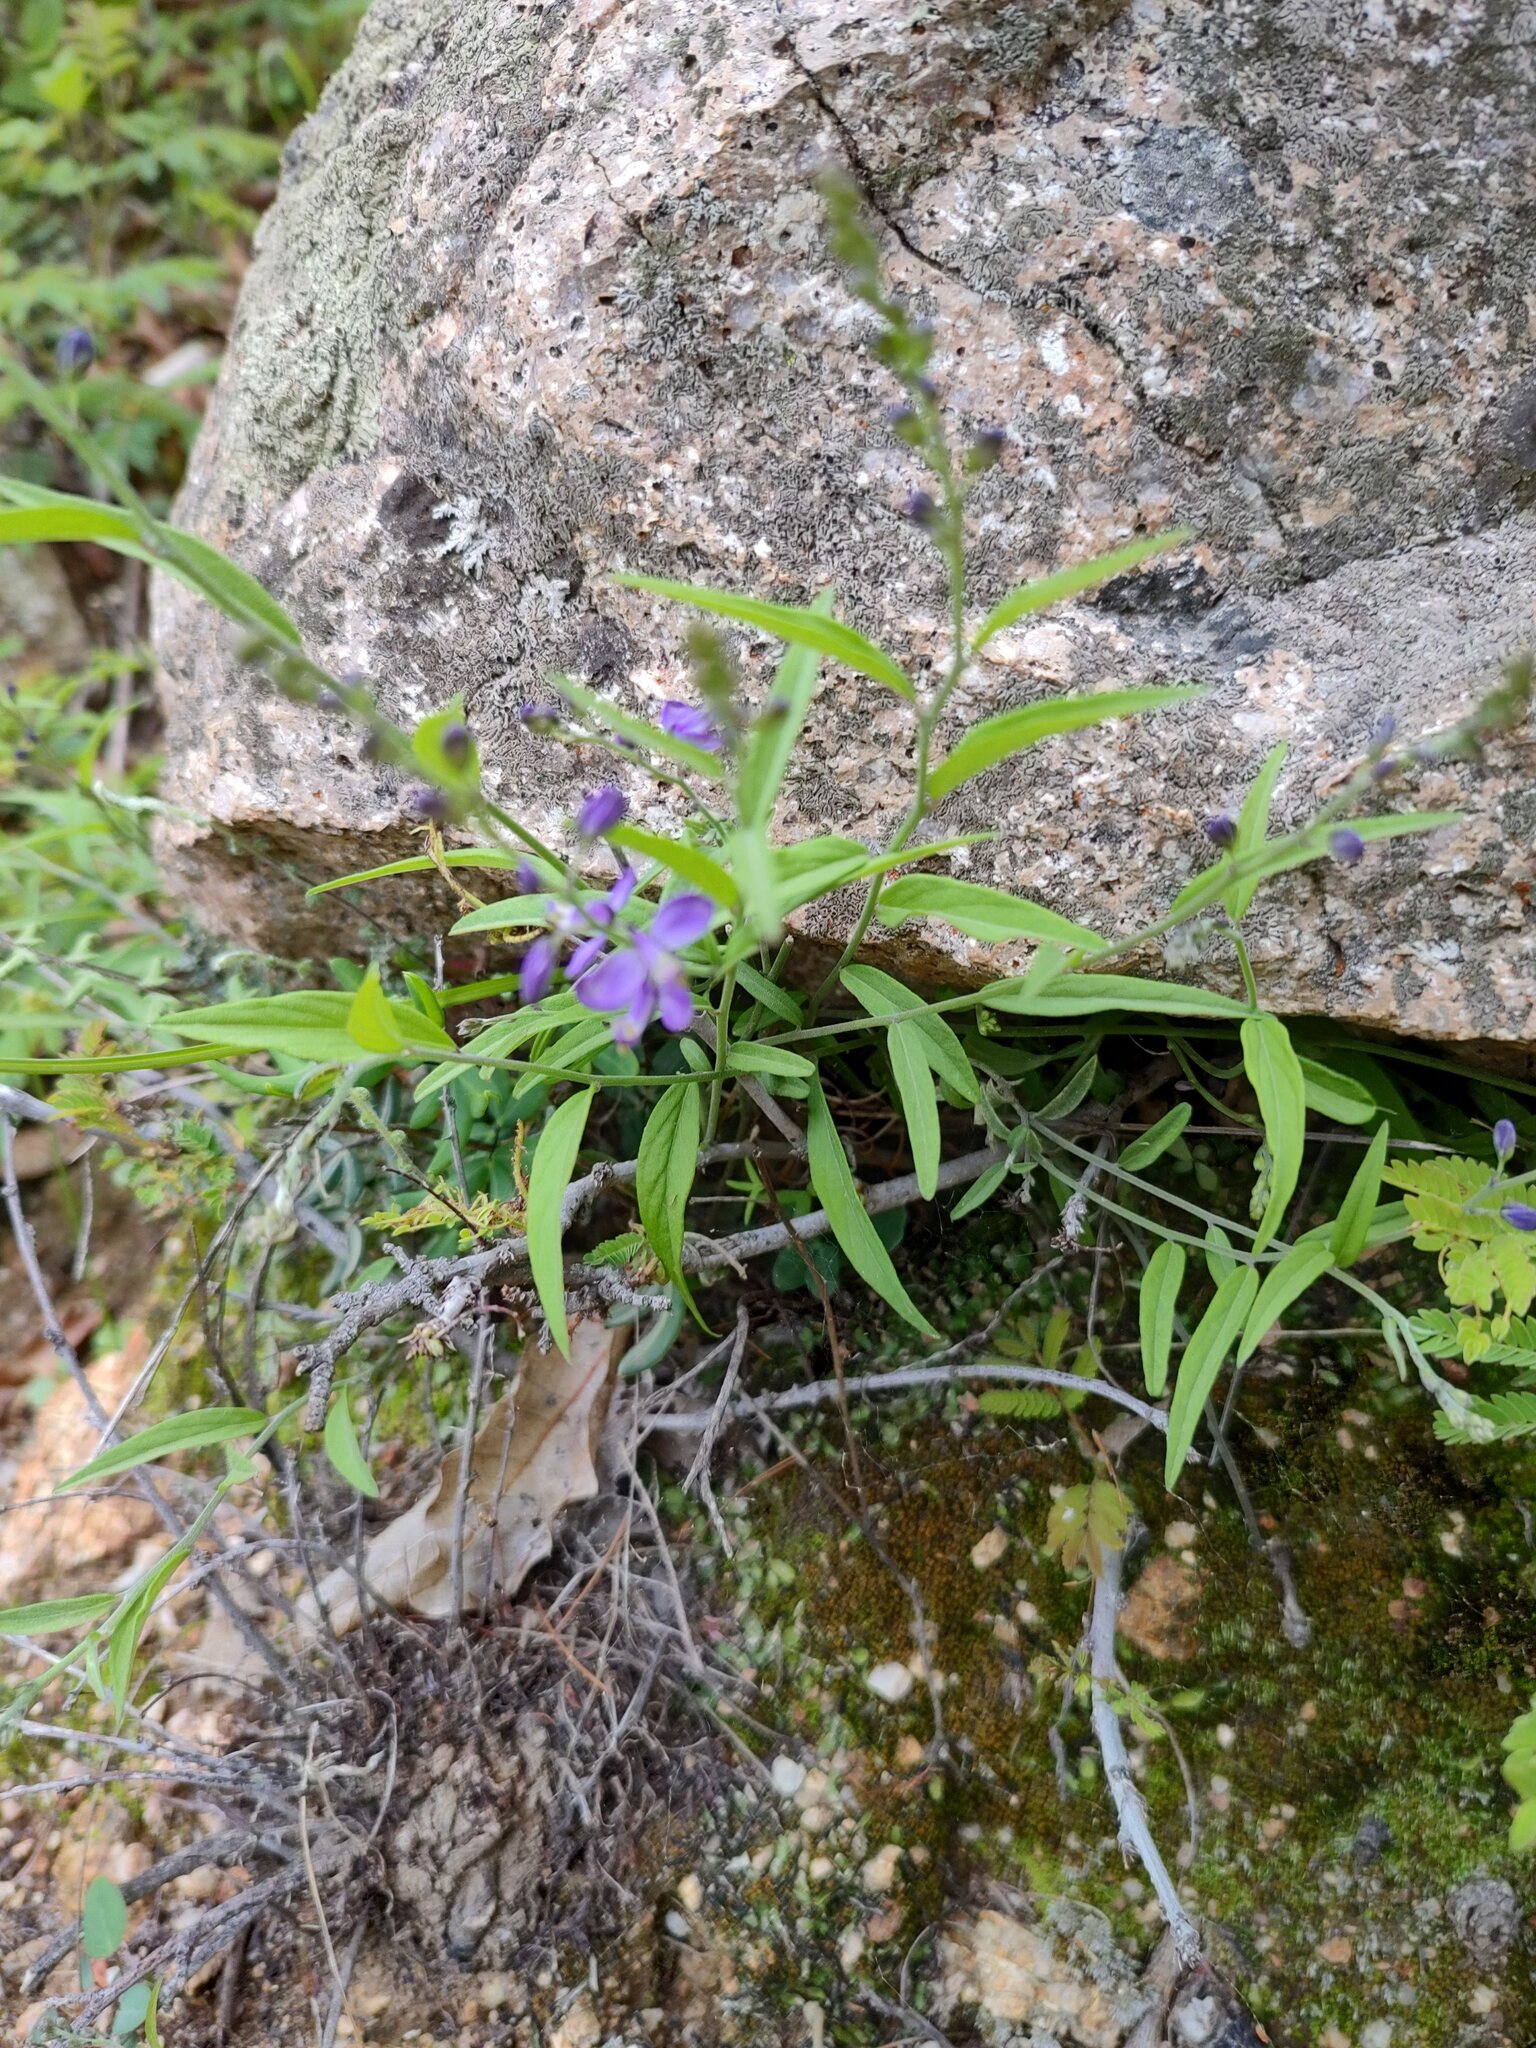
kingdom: Plantae
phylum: Tracheophyta
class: Magnoliopsida
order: Fabales
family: Polygalaceae
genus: Polygala
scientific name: Polygala russelliana
